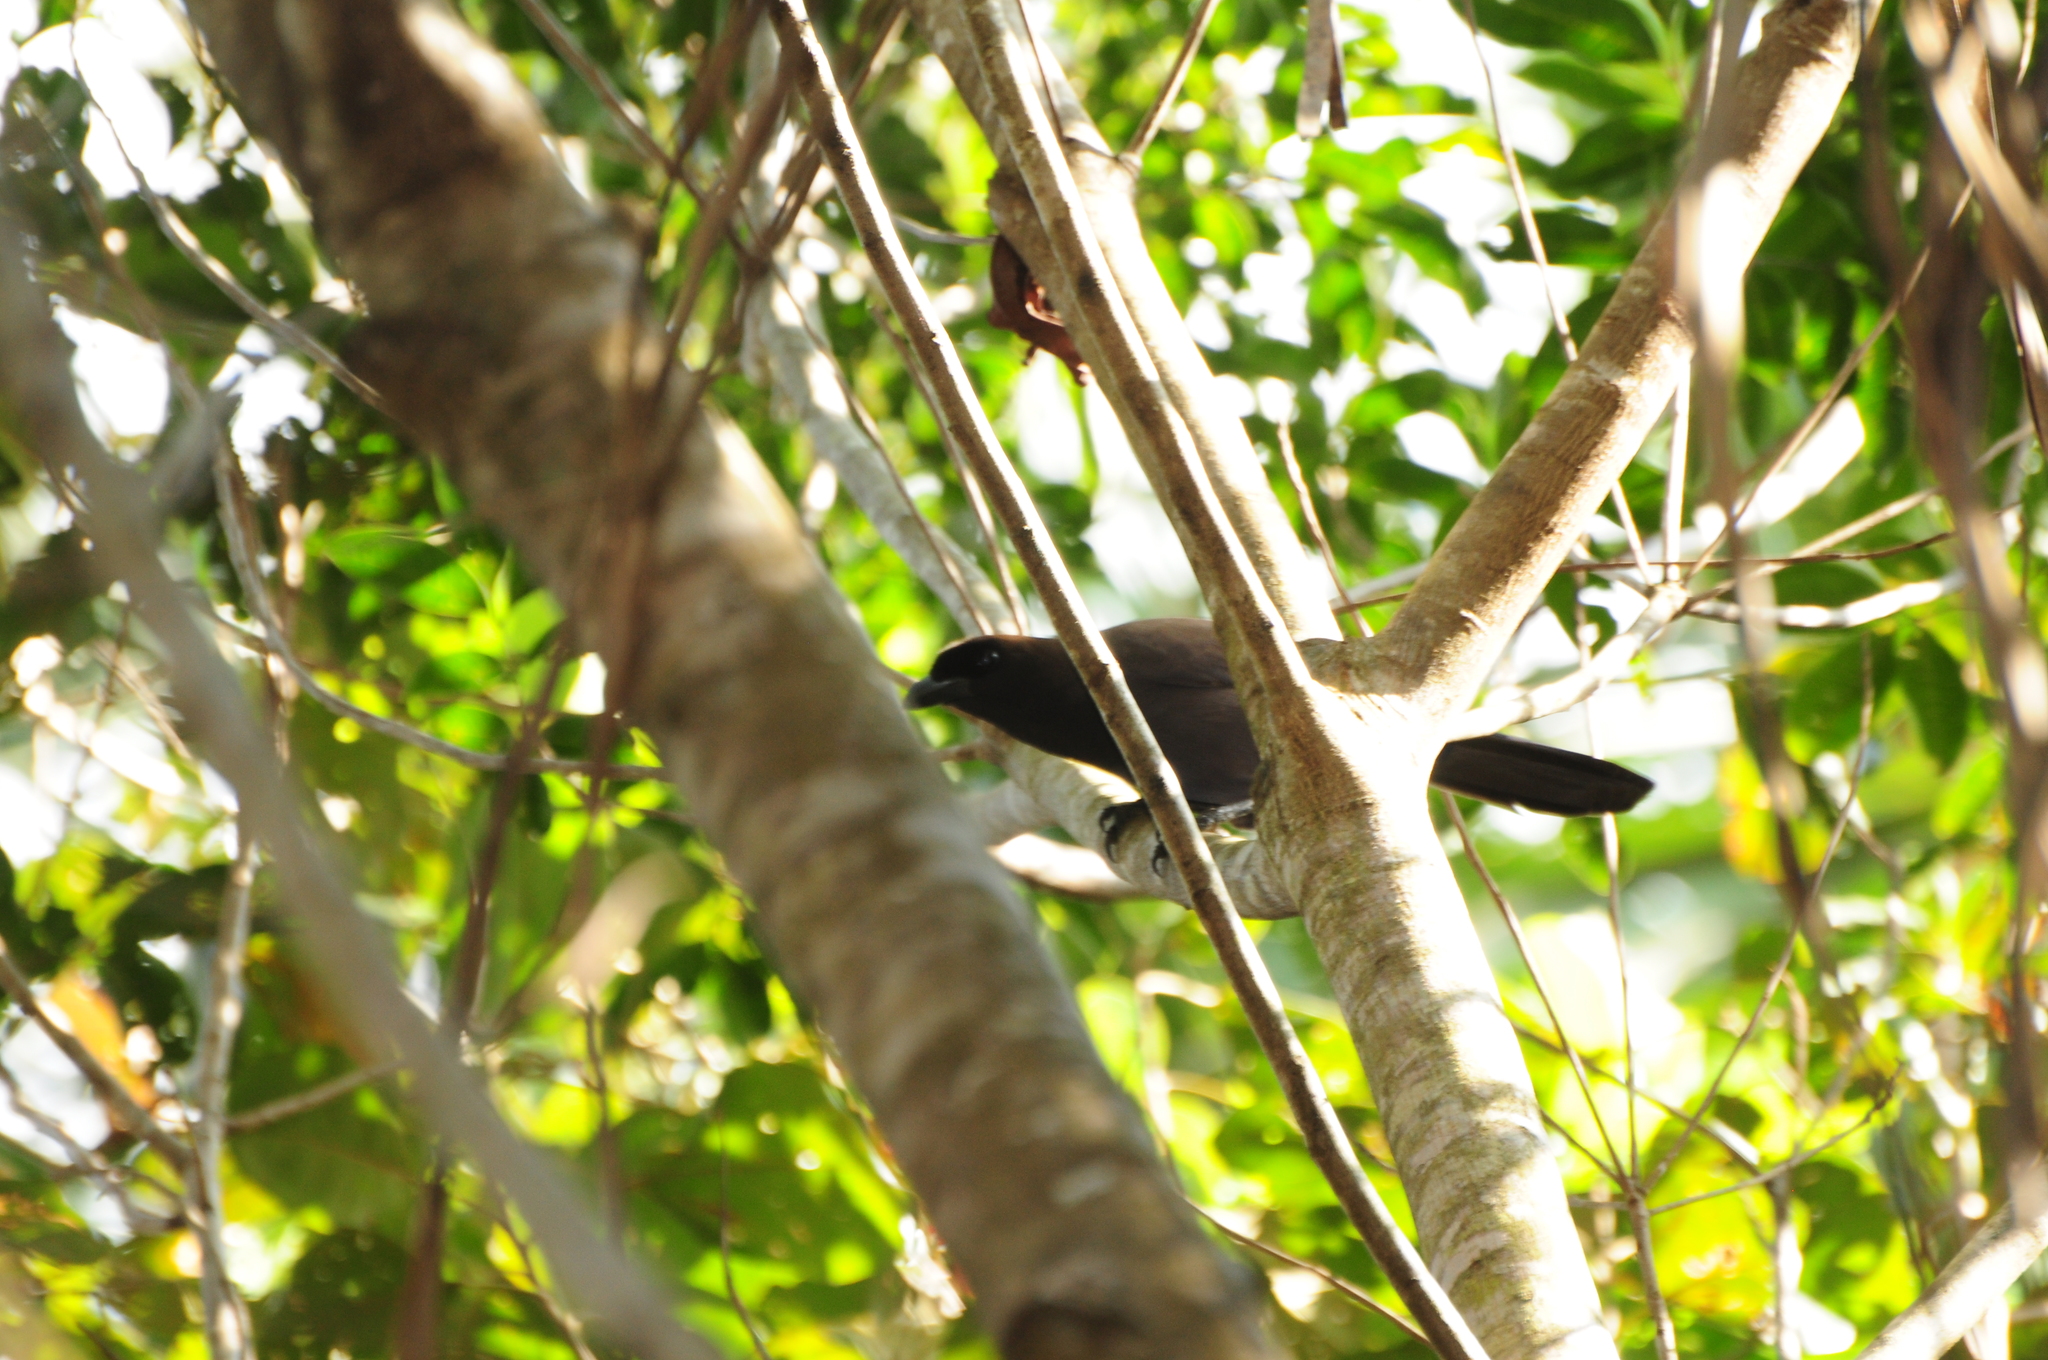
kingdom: Animalia
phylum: Chordata
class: Aves
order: Passeriformes
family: Corvidae
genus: Cyanocorax
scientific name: Cyanocorax cyanomelas
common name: Purplish jay
